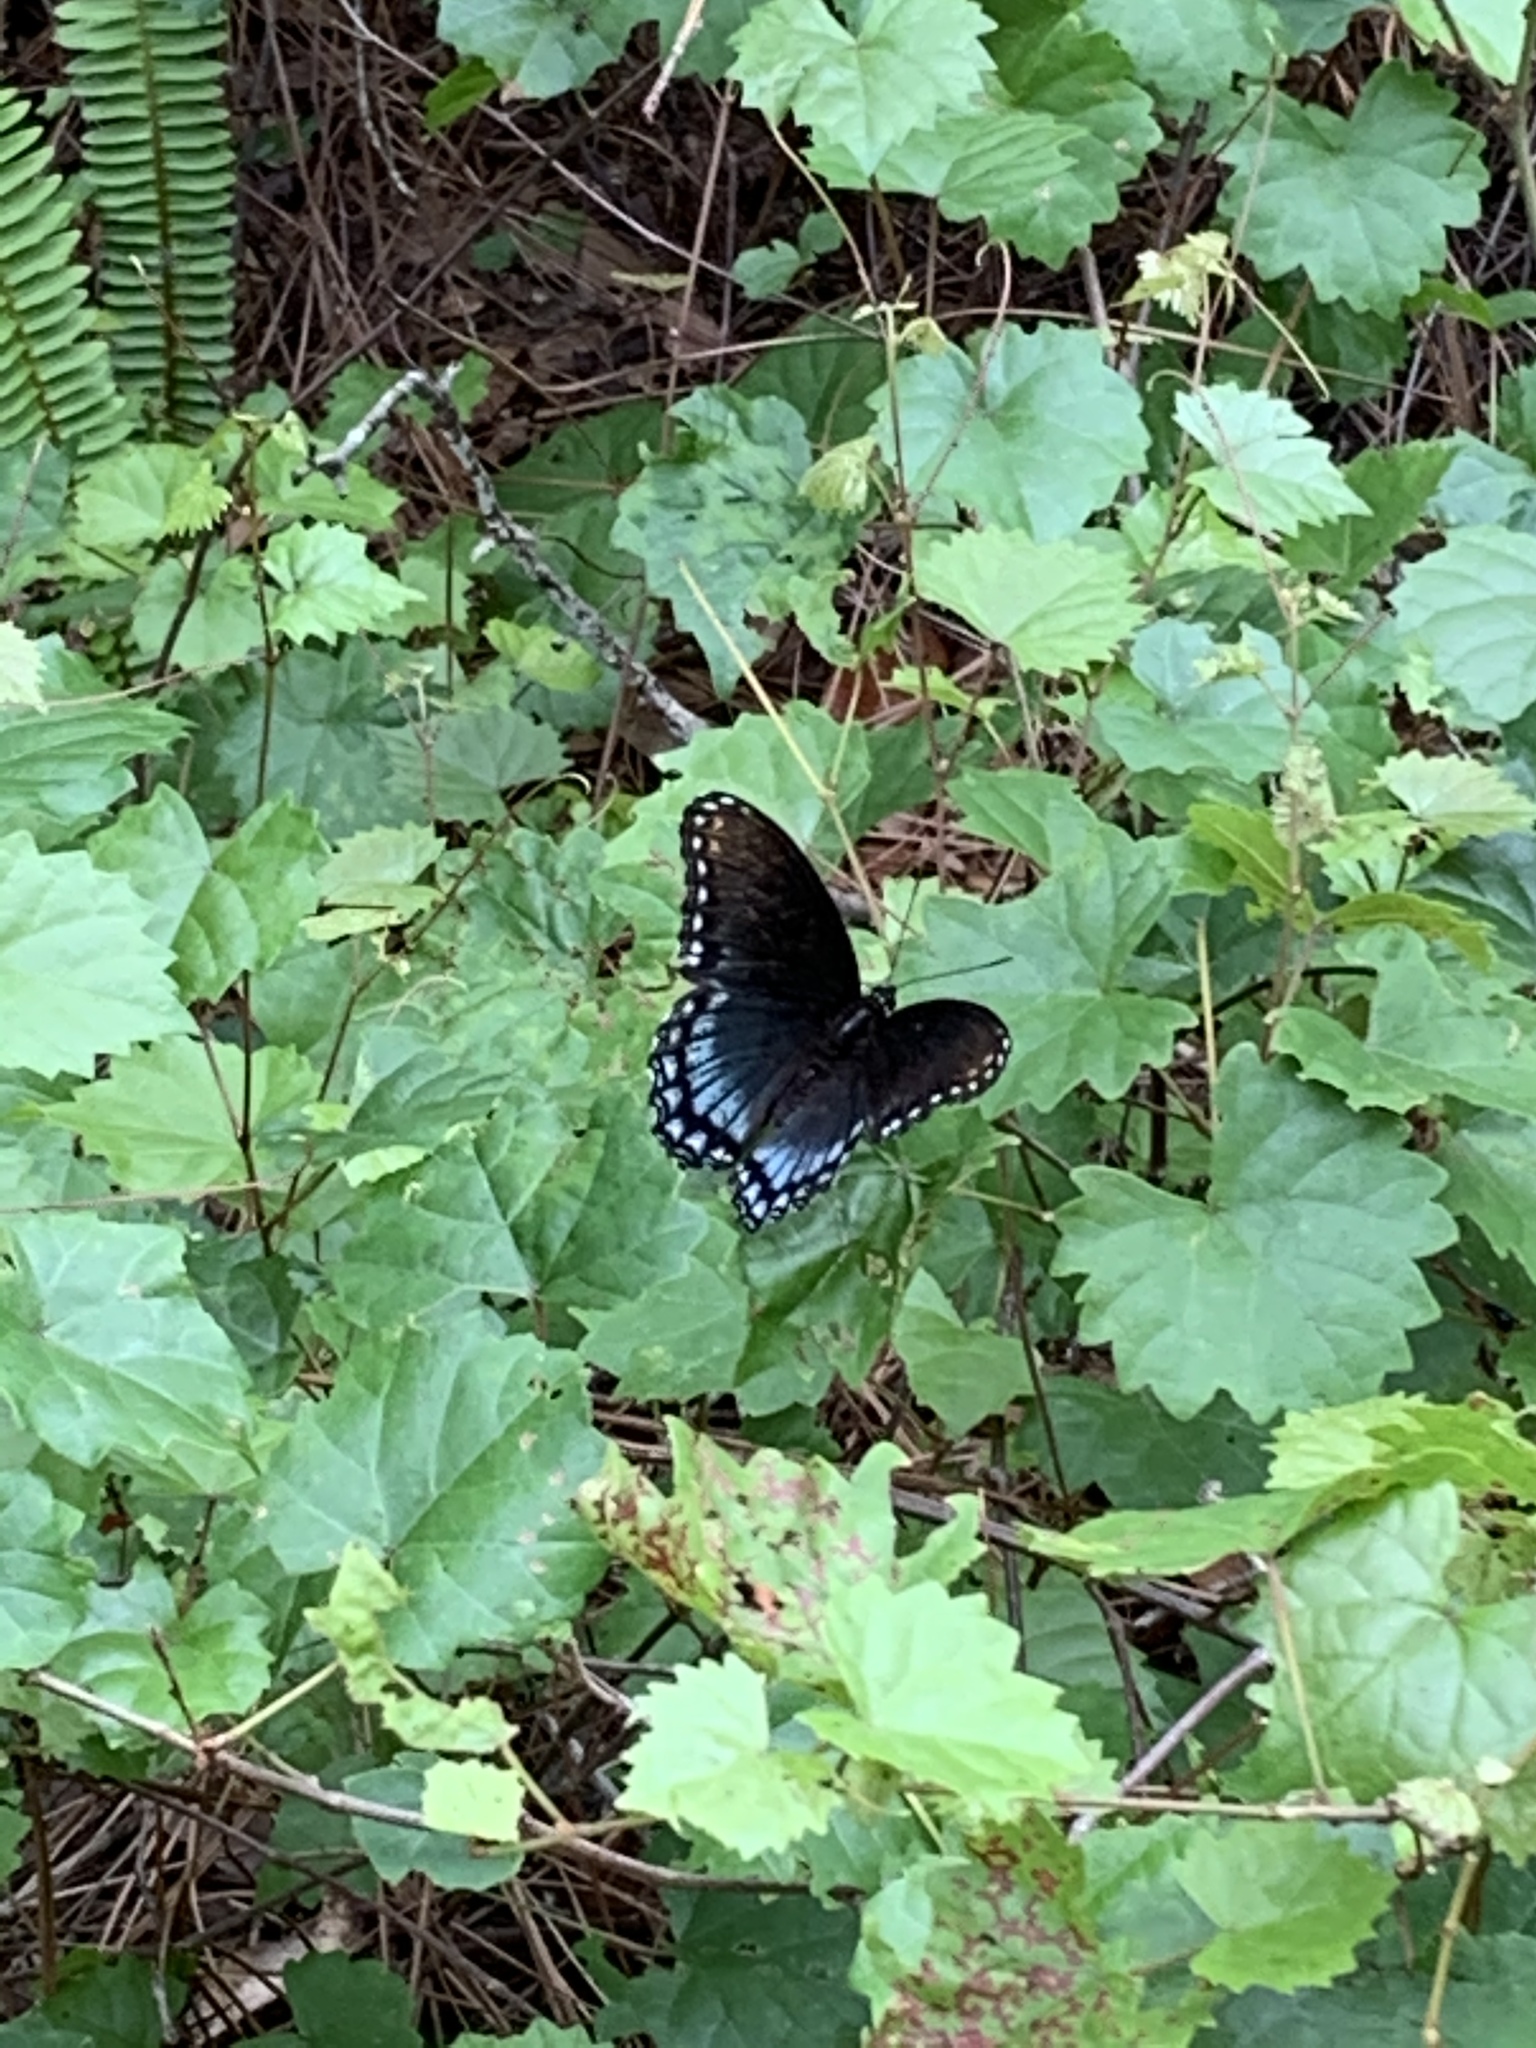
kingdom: Animalia
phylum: Arthropoda
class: Insecta
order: Lepidoptera
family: Nymphalidae
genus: Limenitis
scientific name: Limenitis astyanax
